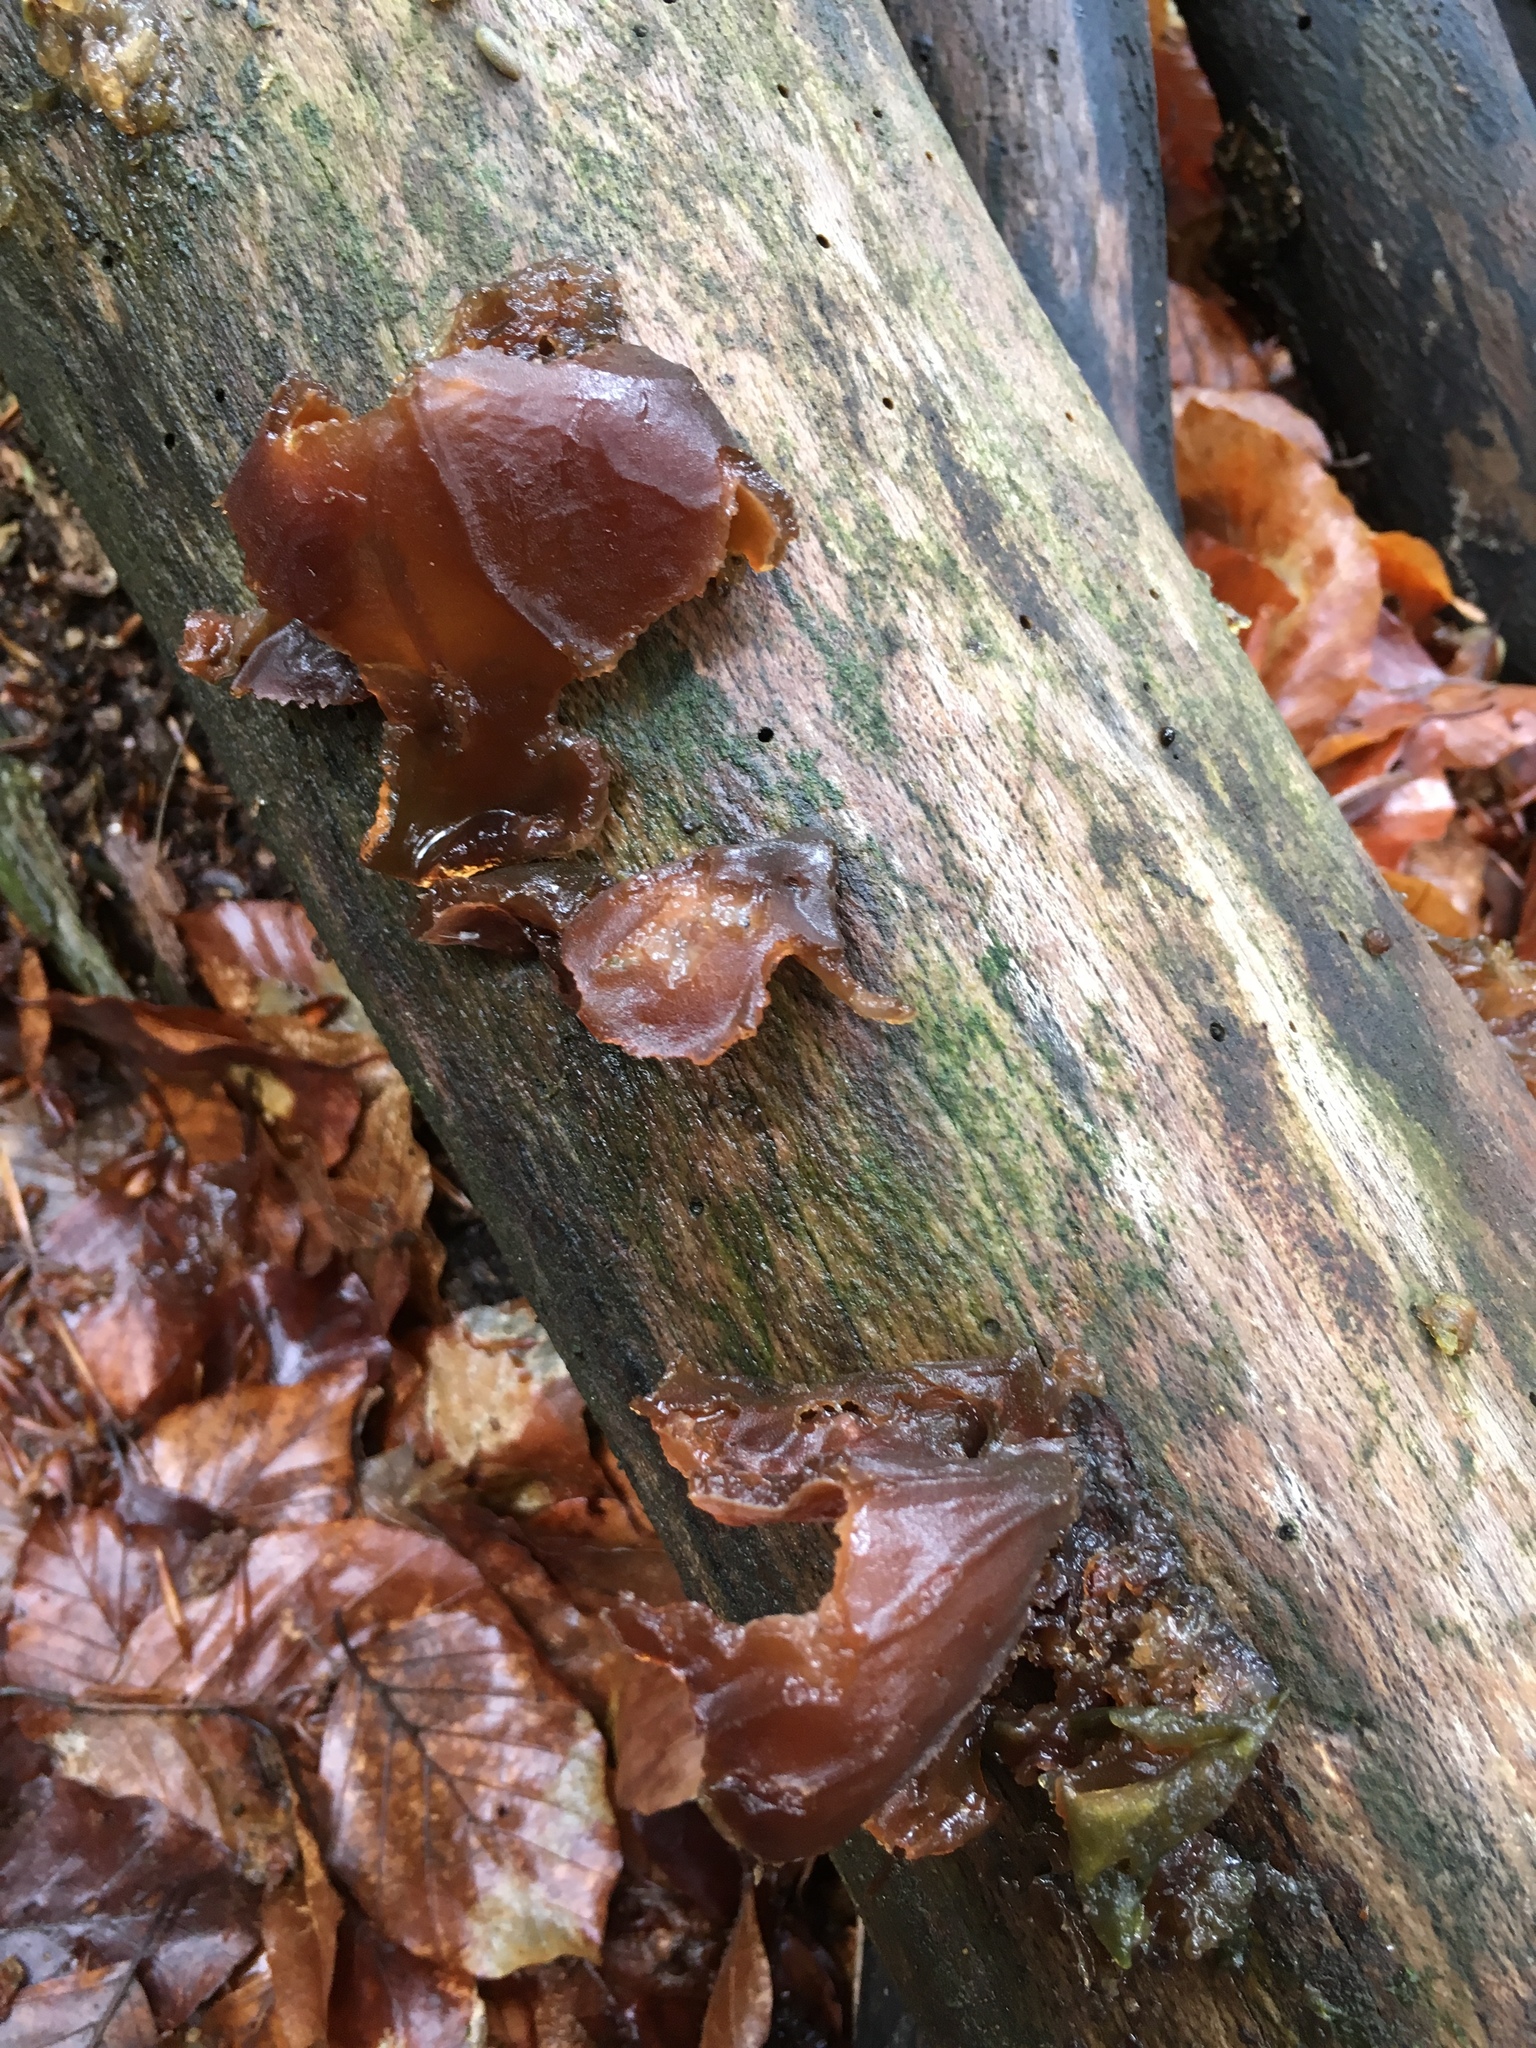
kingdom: Fungi
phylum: Basidiomycota
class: Agaricomycetes
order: Auriculariales
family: Auriculariaceae
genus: Auricularia
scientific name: Auricularia auricula-judae
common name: Jelly ear
